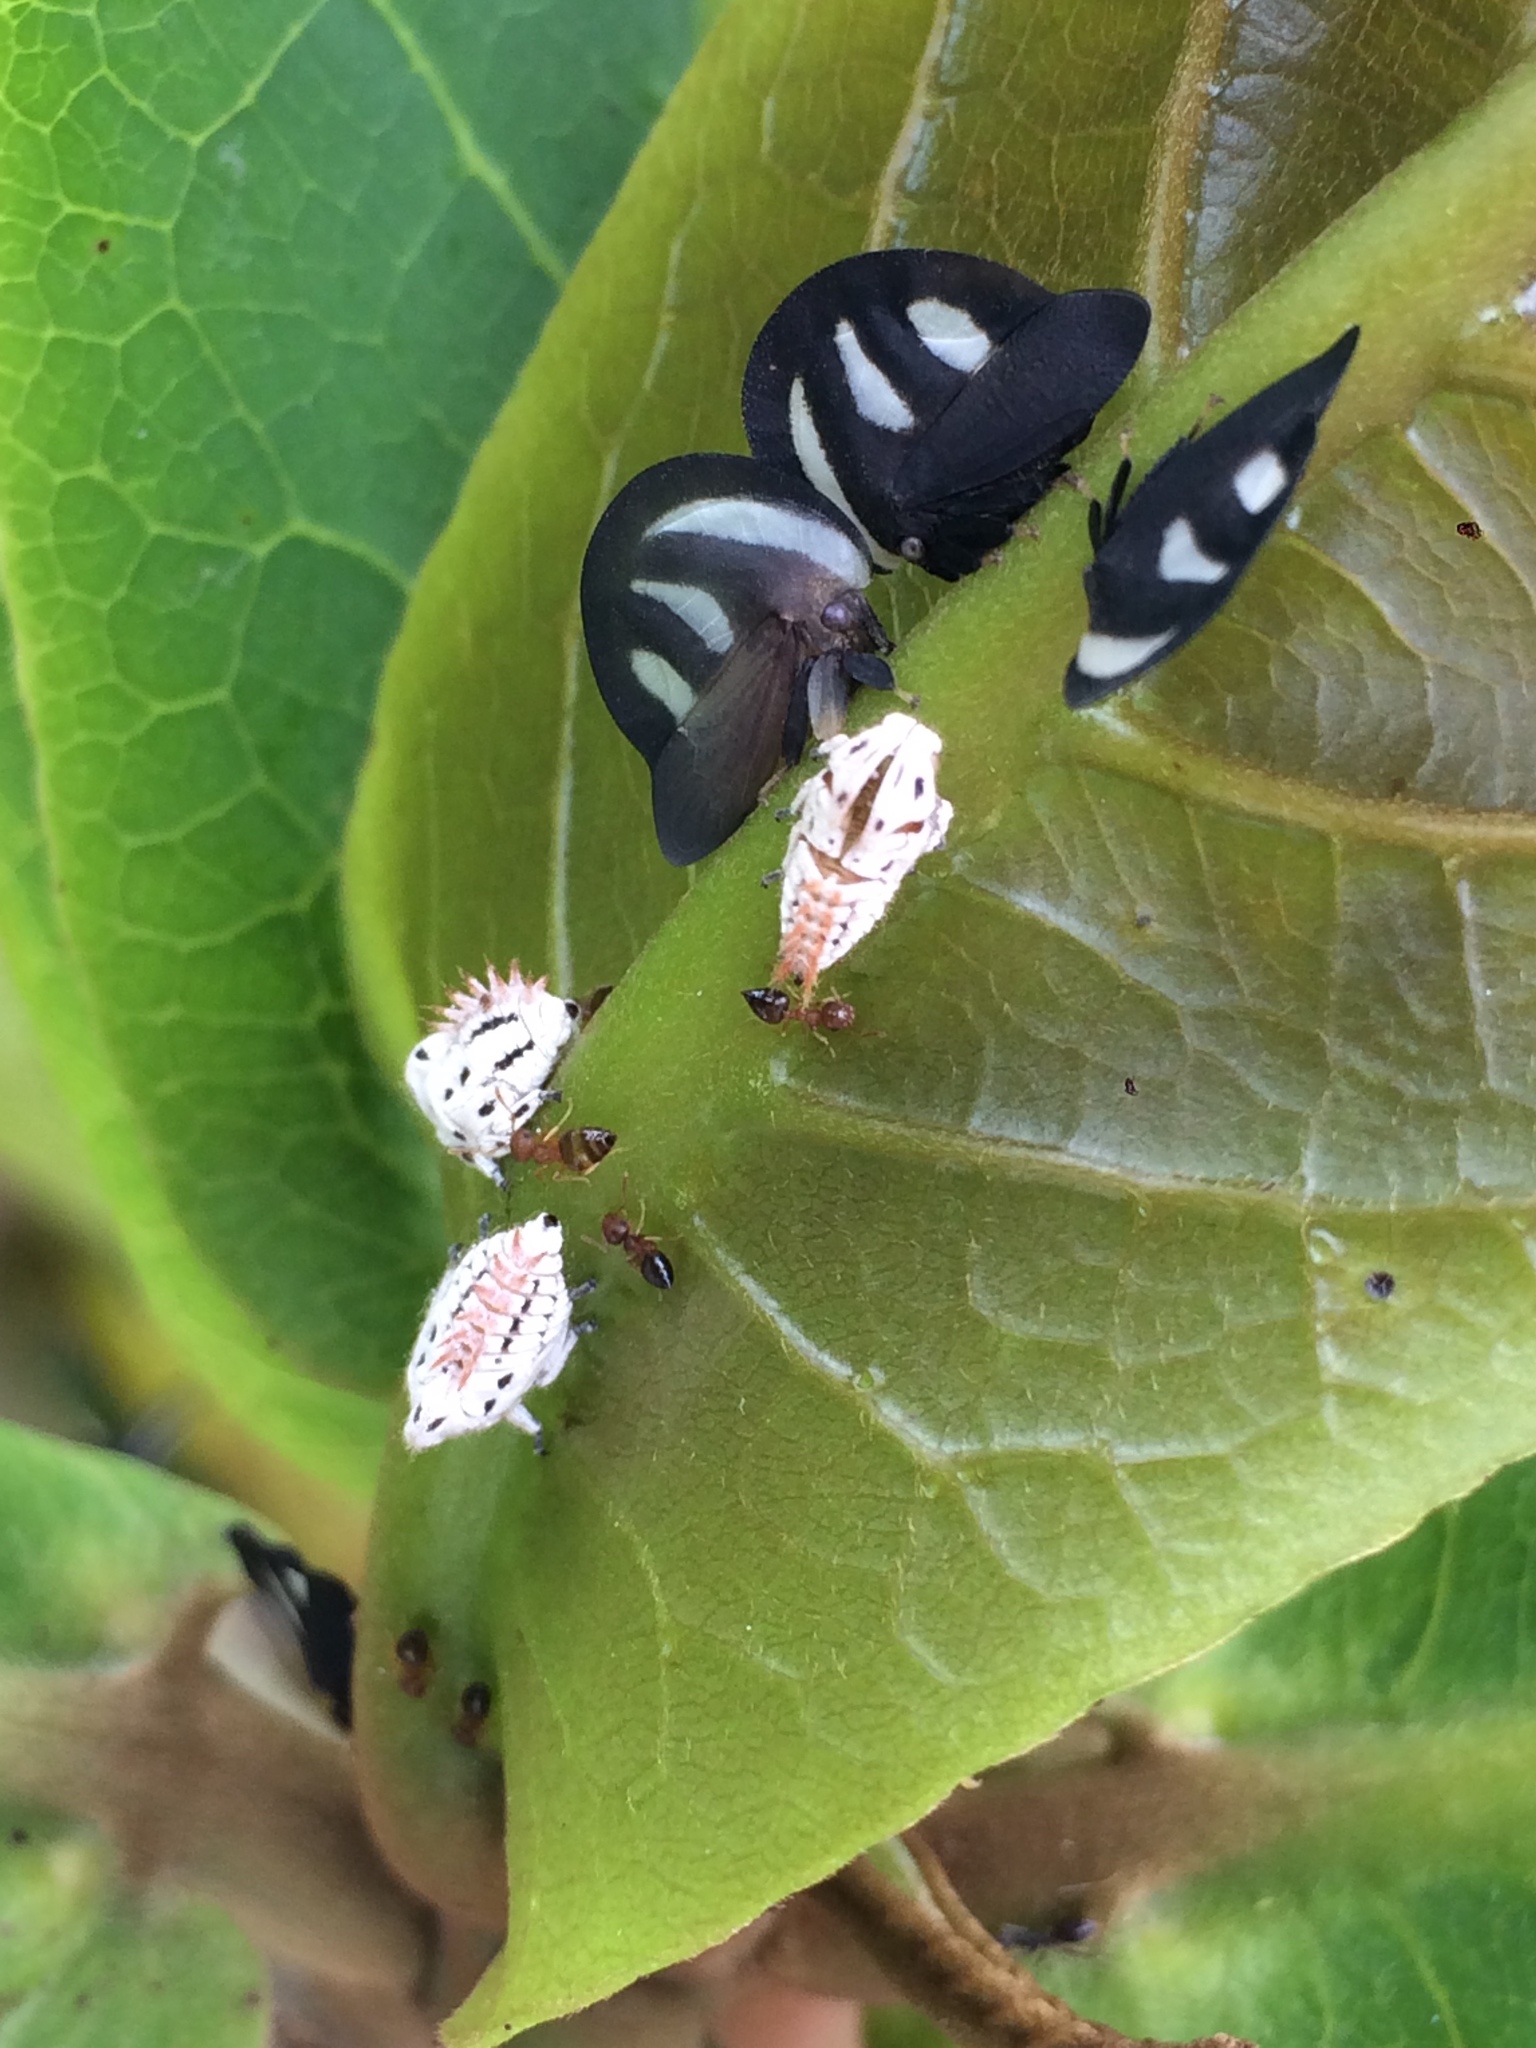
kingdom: Animalia
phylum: Arthropoda
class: Insecta
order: Hemiptera
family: Membracidae
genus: Membracis
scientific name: Membracis
